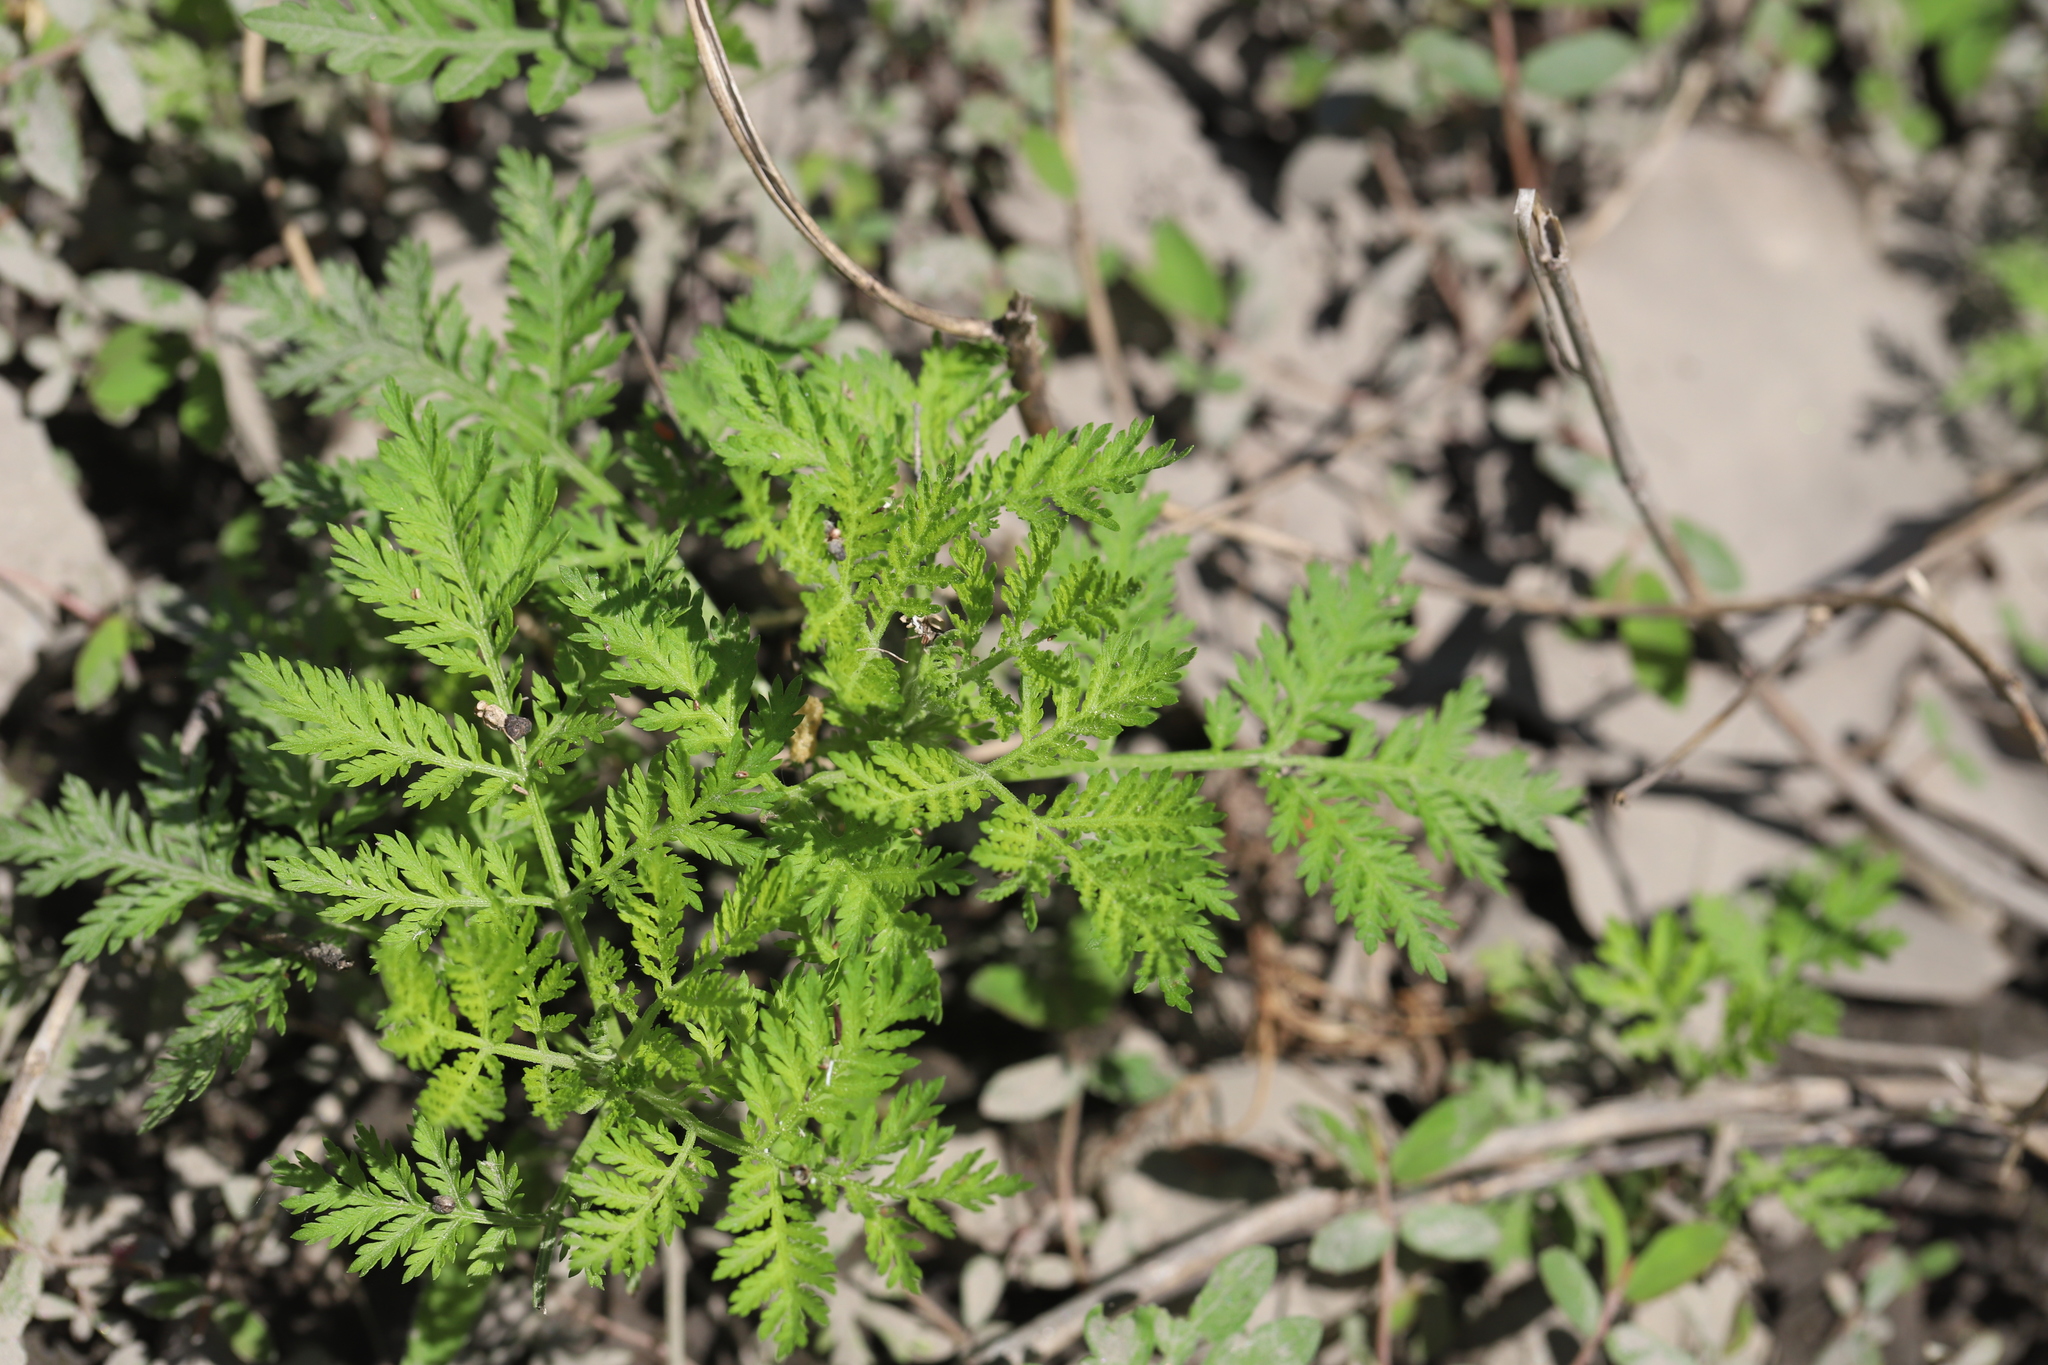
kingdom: Plantae
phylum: Tracheophyta
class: Magnoliopsida
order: Asterales
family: Asteraceae
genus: Artemisia
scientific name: Artemisia annua
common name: Sweet sagewort
